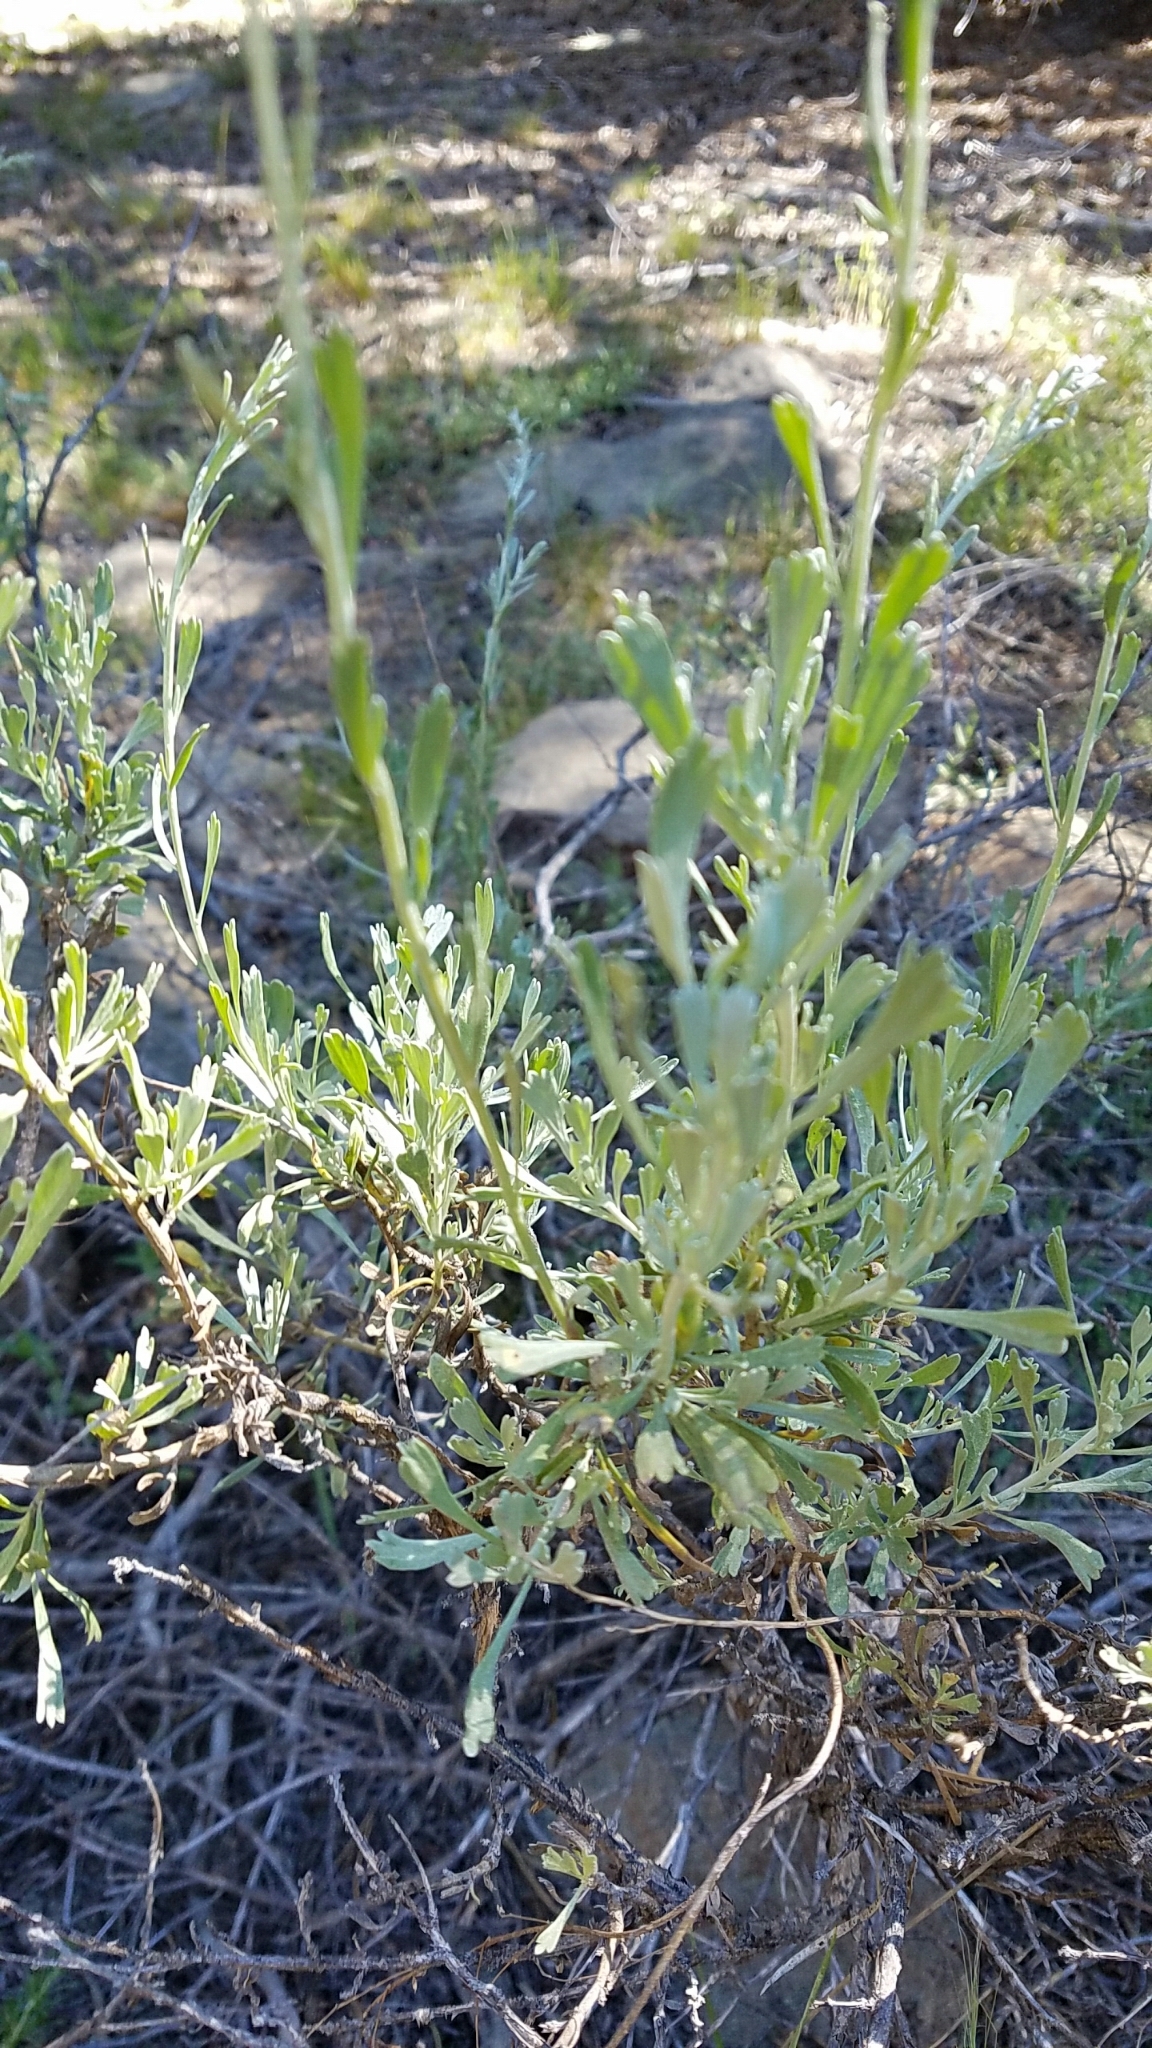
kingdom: Plantae
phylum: Tracheophyta
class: Magnoliopsida
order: Asterales
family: Asteraceae
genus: Artemisia
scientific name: Artemisia tridentata
